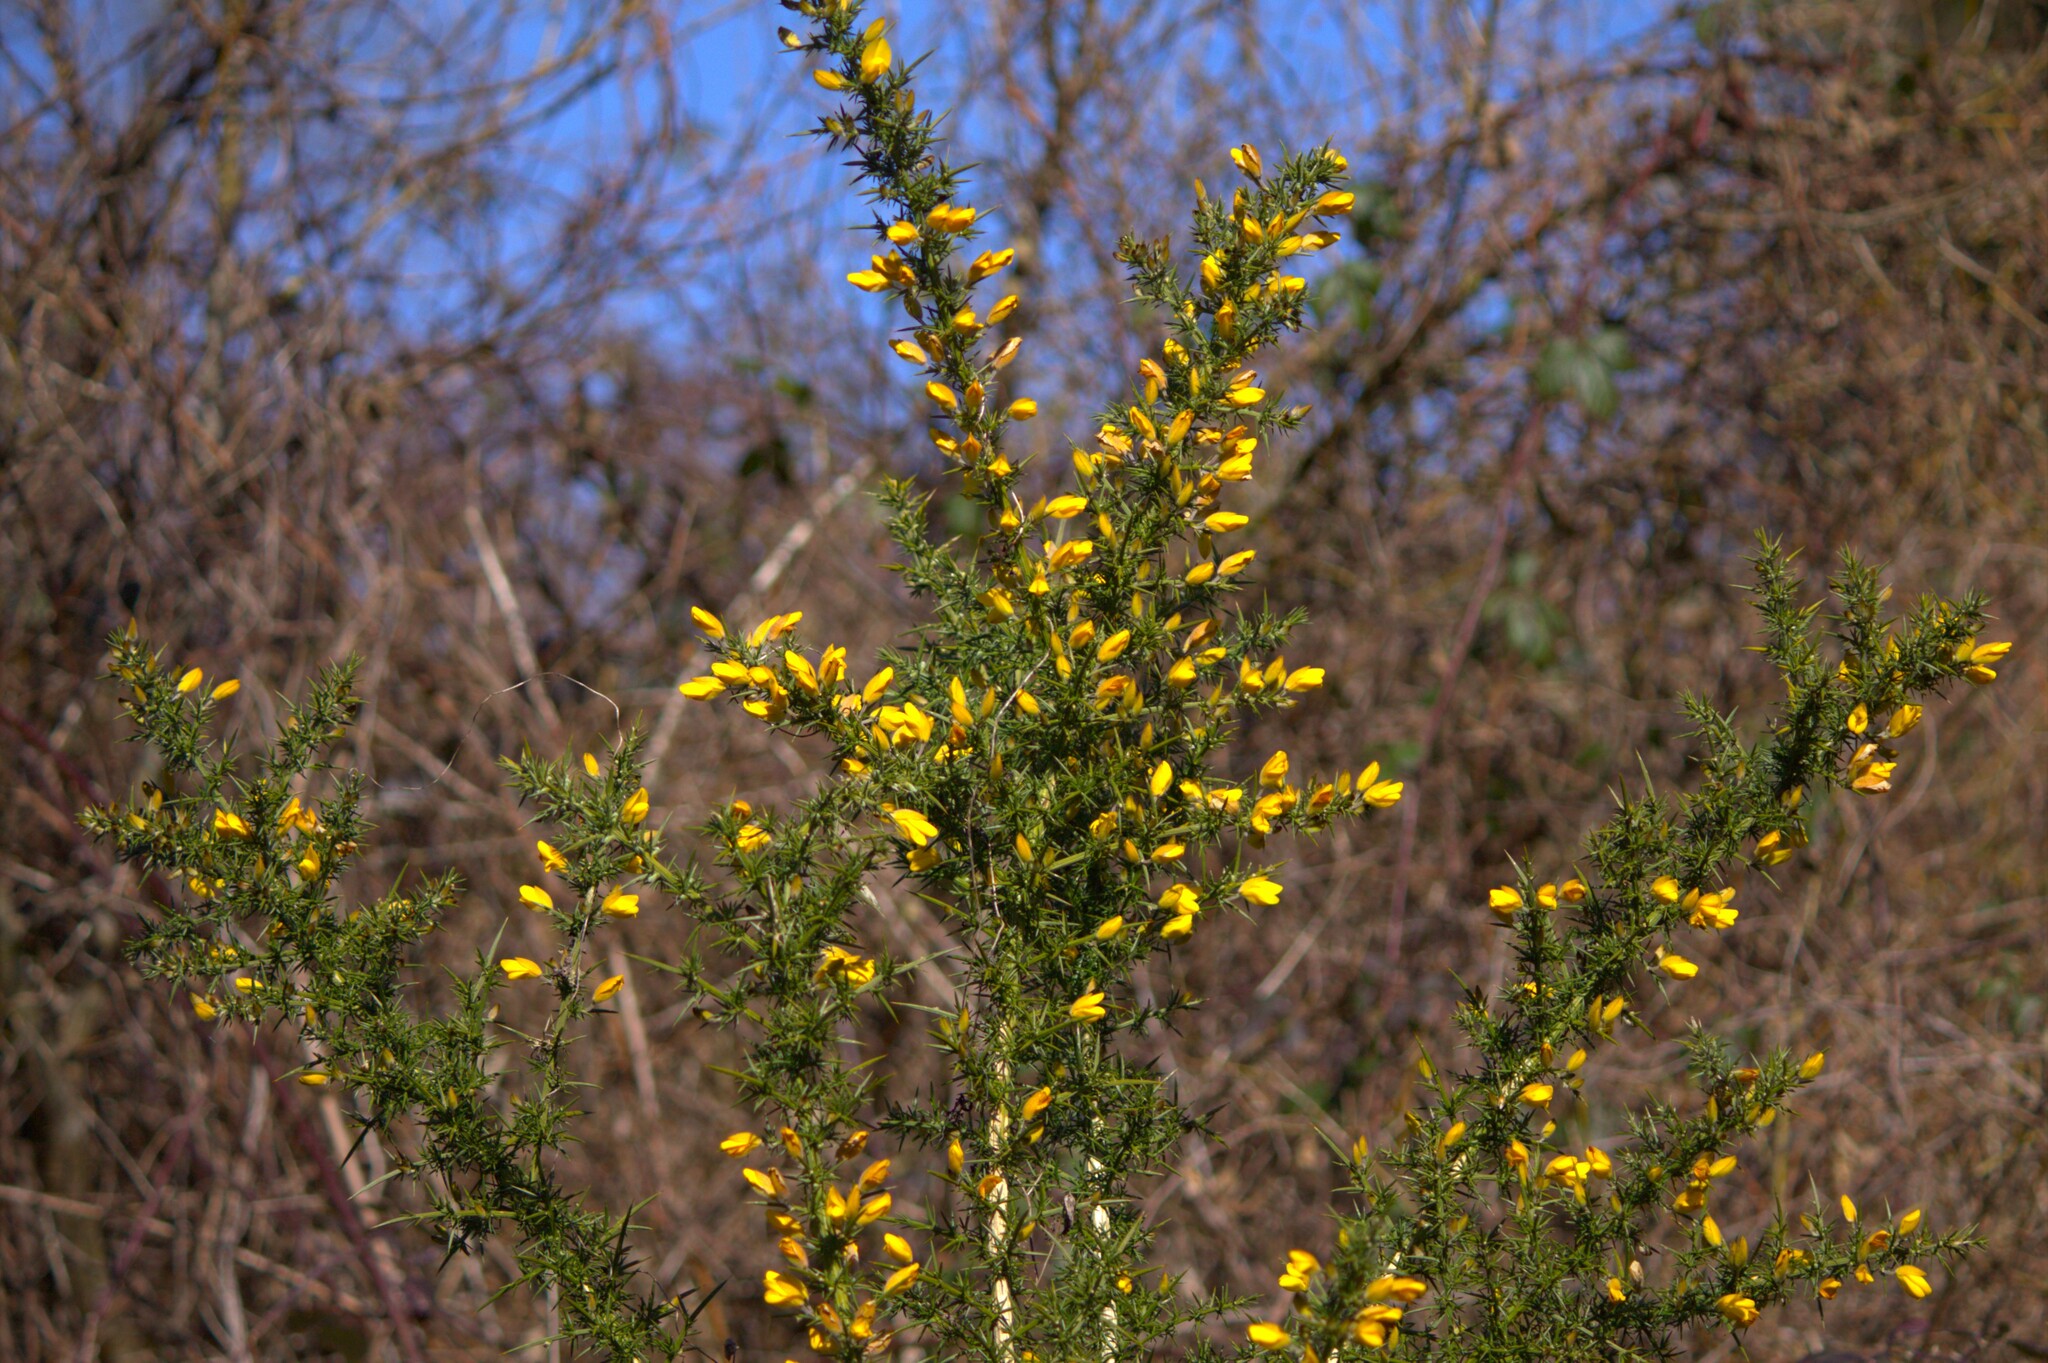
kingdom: Plantae
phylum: Tracheophyta
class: Magnoliopsida
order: Fabales
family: Fabaceae
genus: Ulex
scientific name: Ulex europaeus
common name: Common gorse
